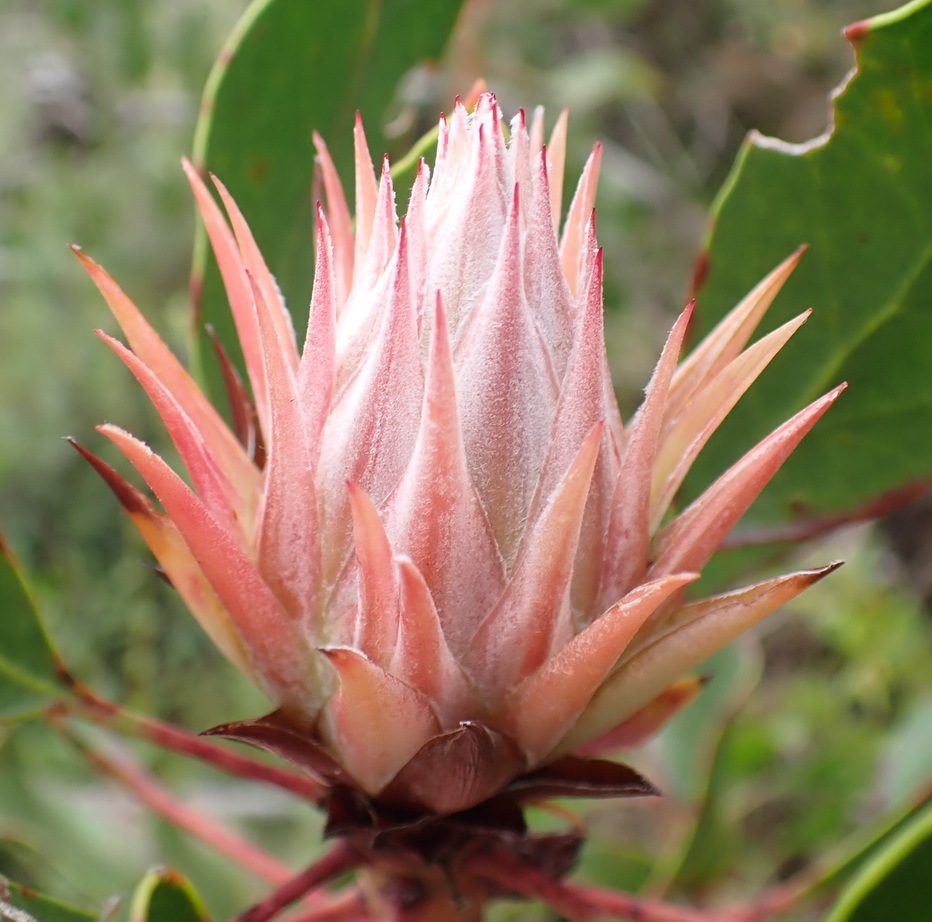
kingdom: Plantae
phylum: Tracheophyta
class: Magnoliopsida
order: Proteales
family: Proteaceae
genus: Protea
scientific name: Protea cynaroides
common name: King protea
